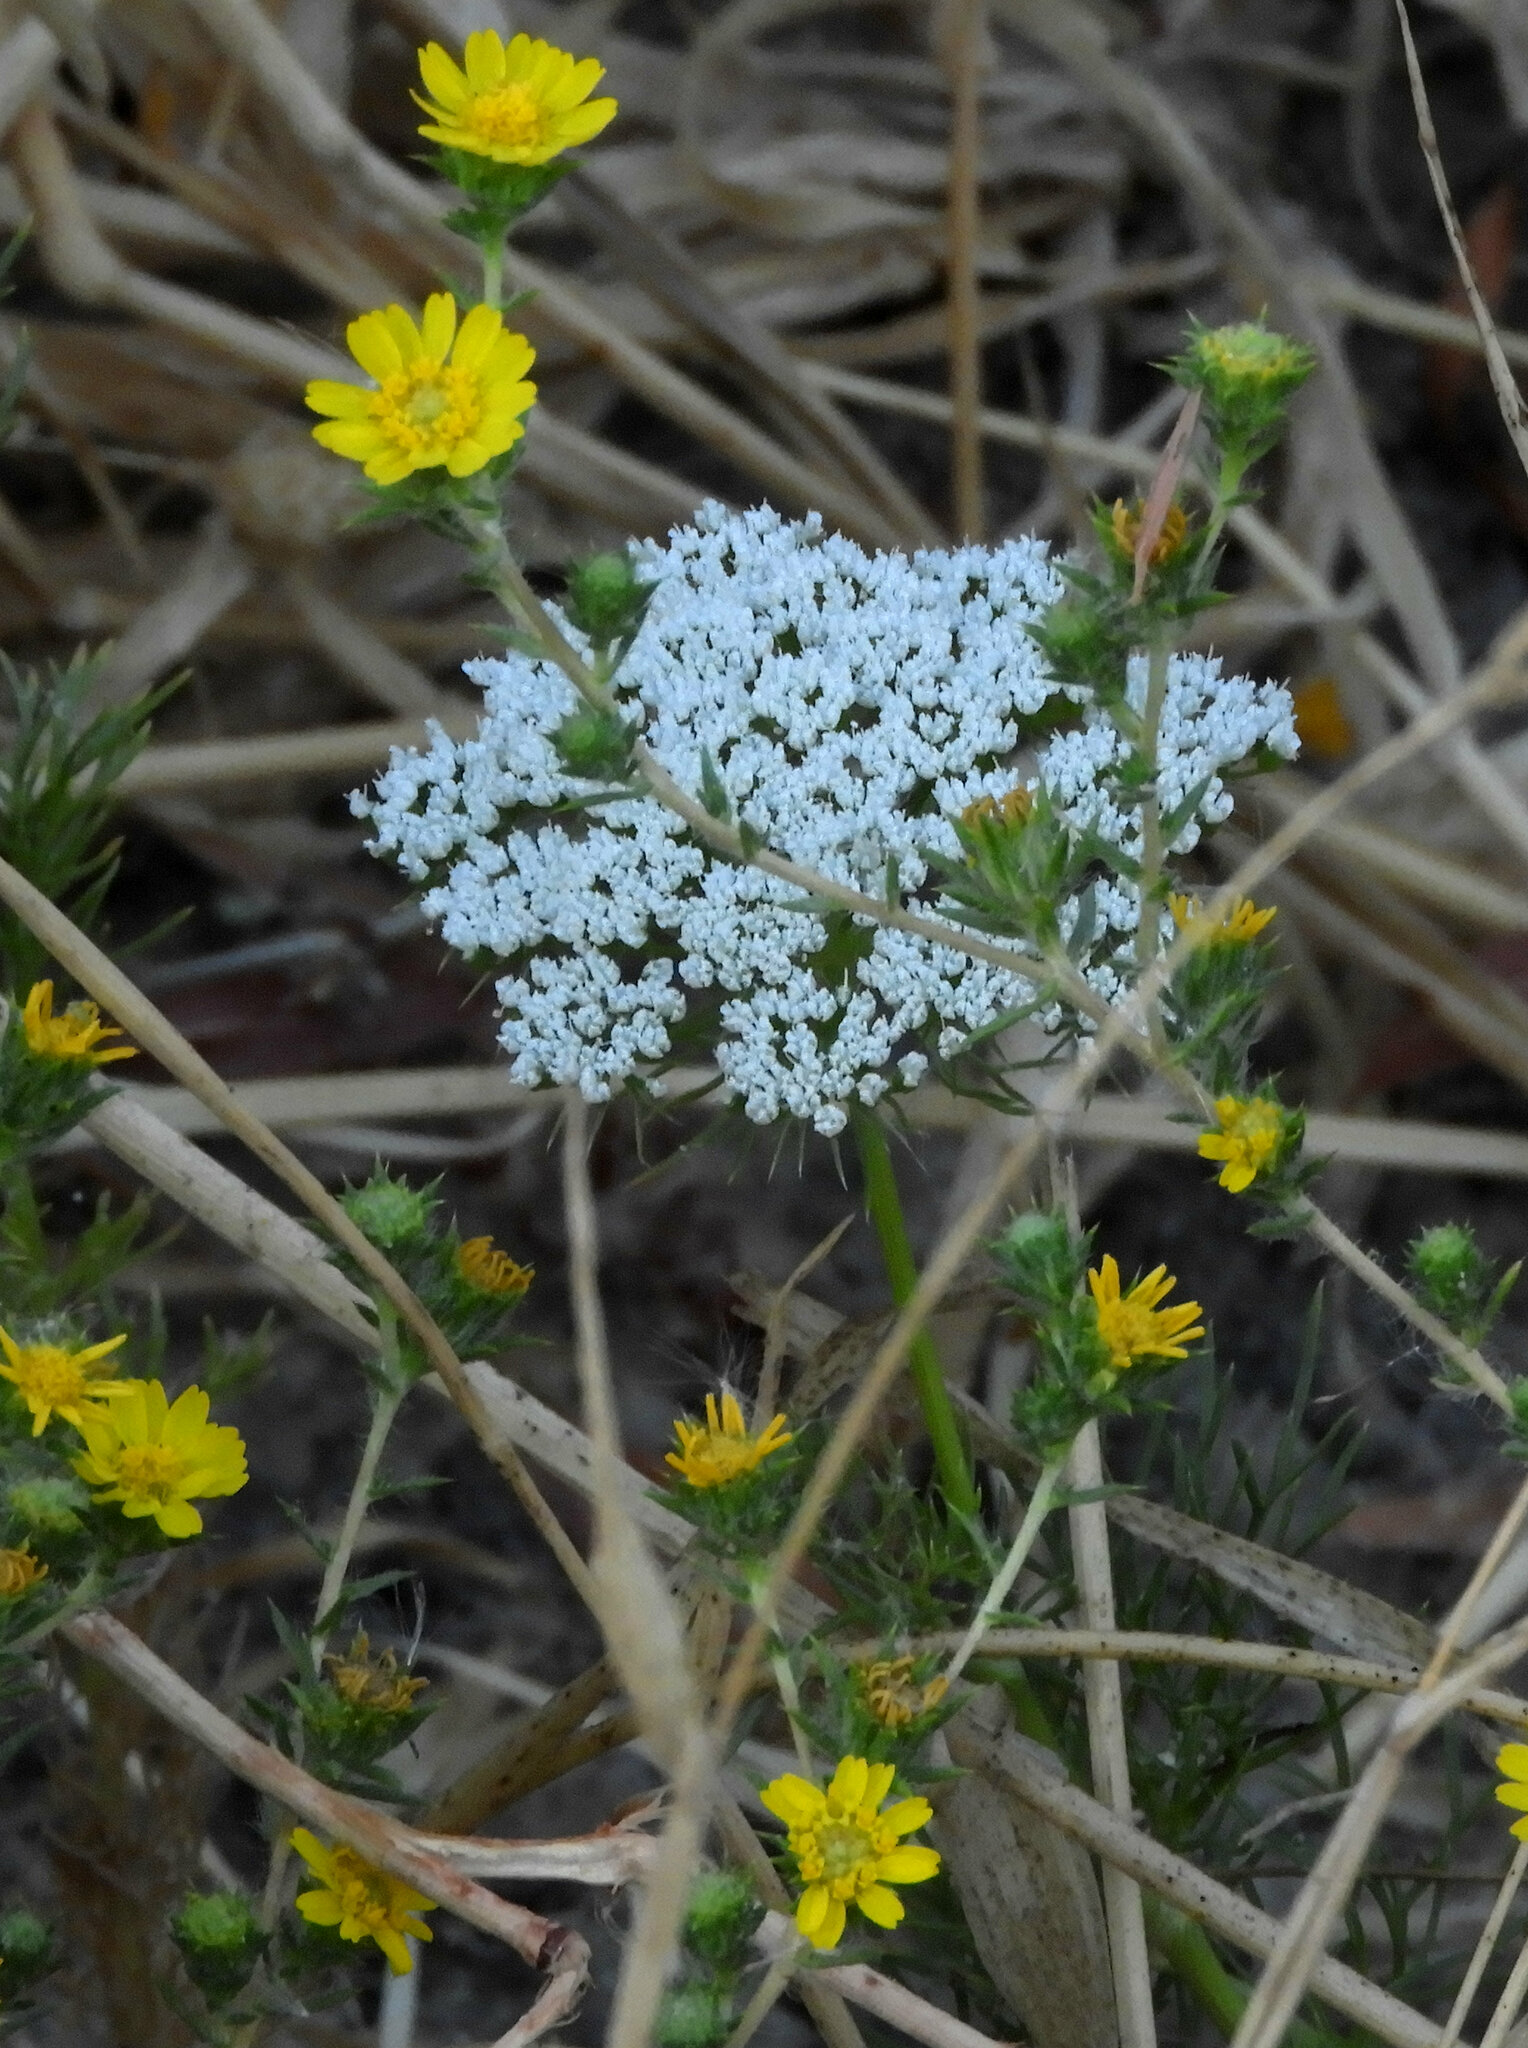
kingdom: Plantae
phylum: Tracheophyta
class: Magnoliopsida
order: Apiales
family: Apiaceae
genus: Visnaga
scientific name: Visnaga daucoides
